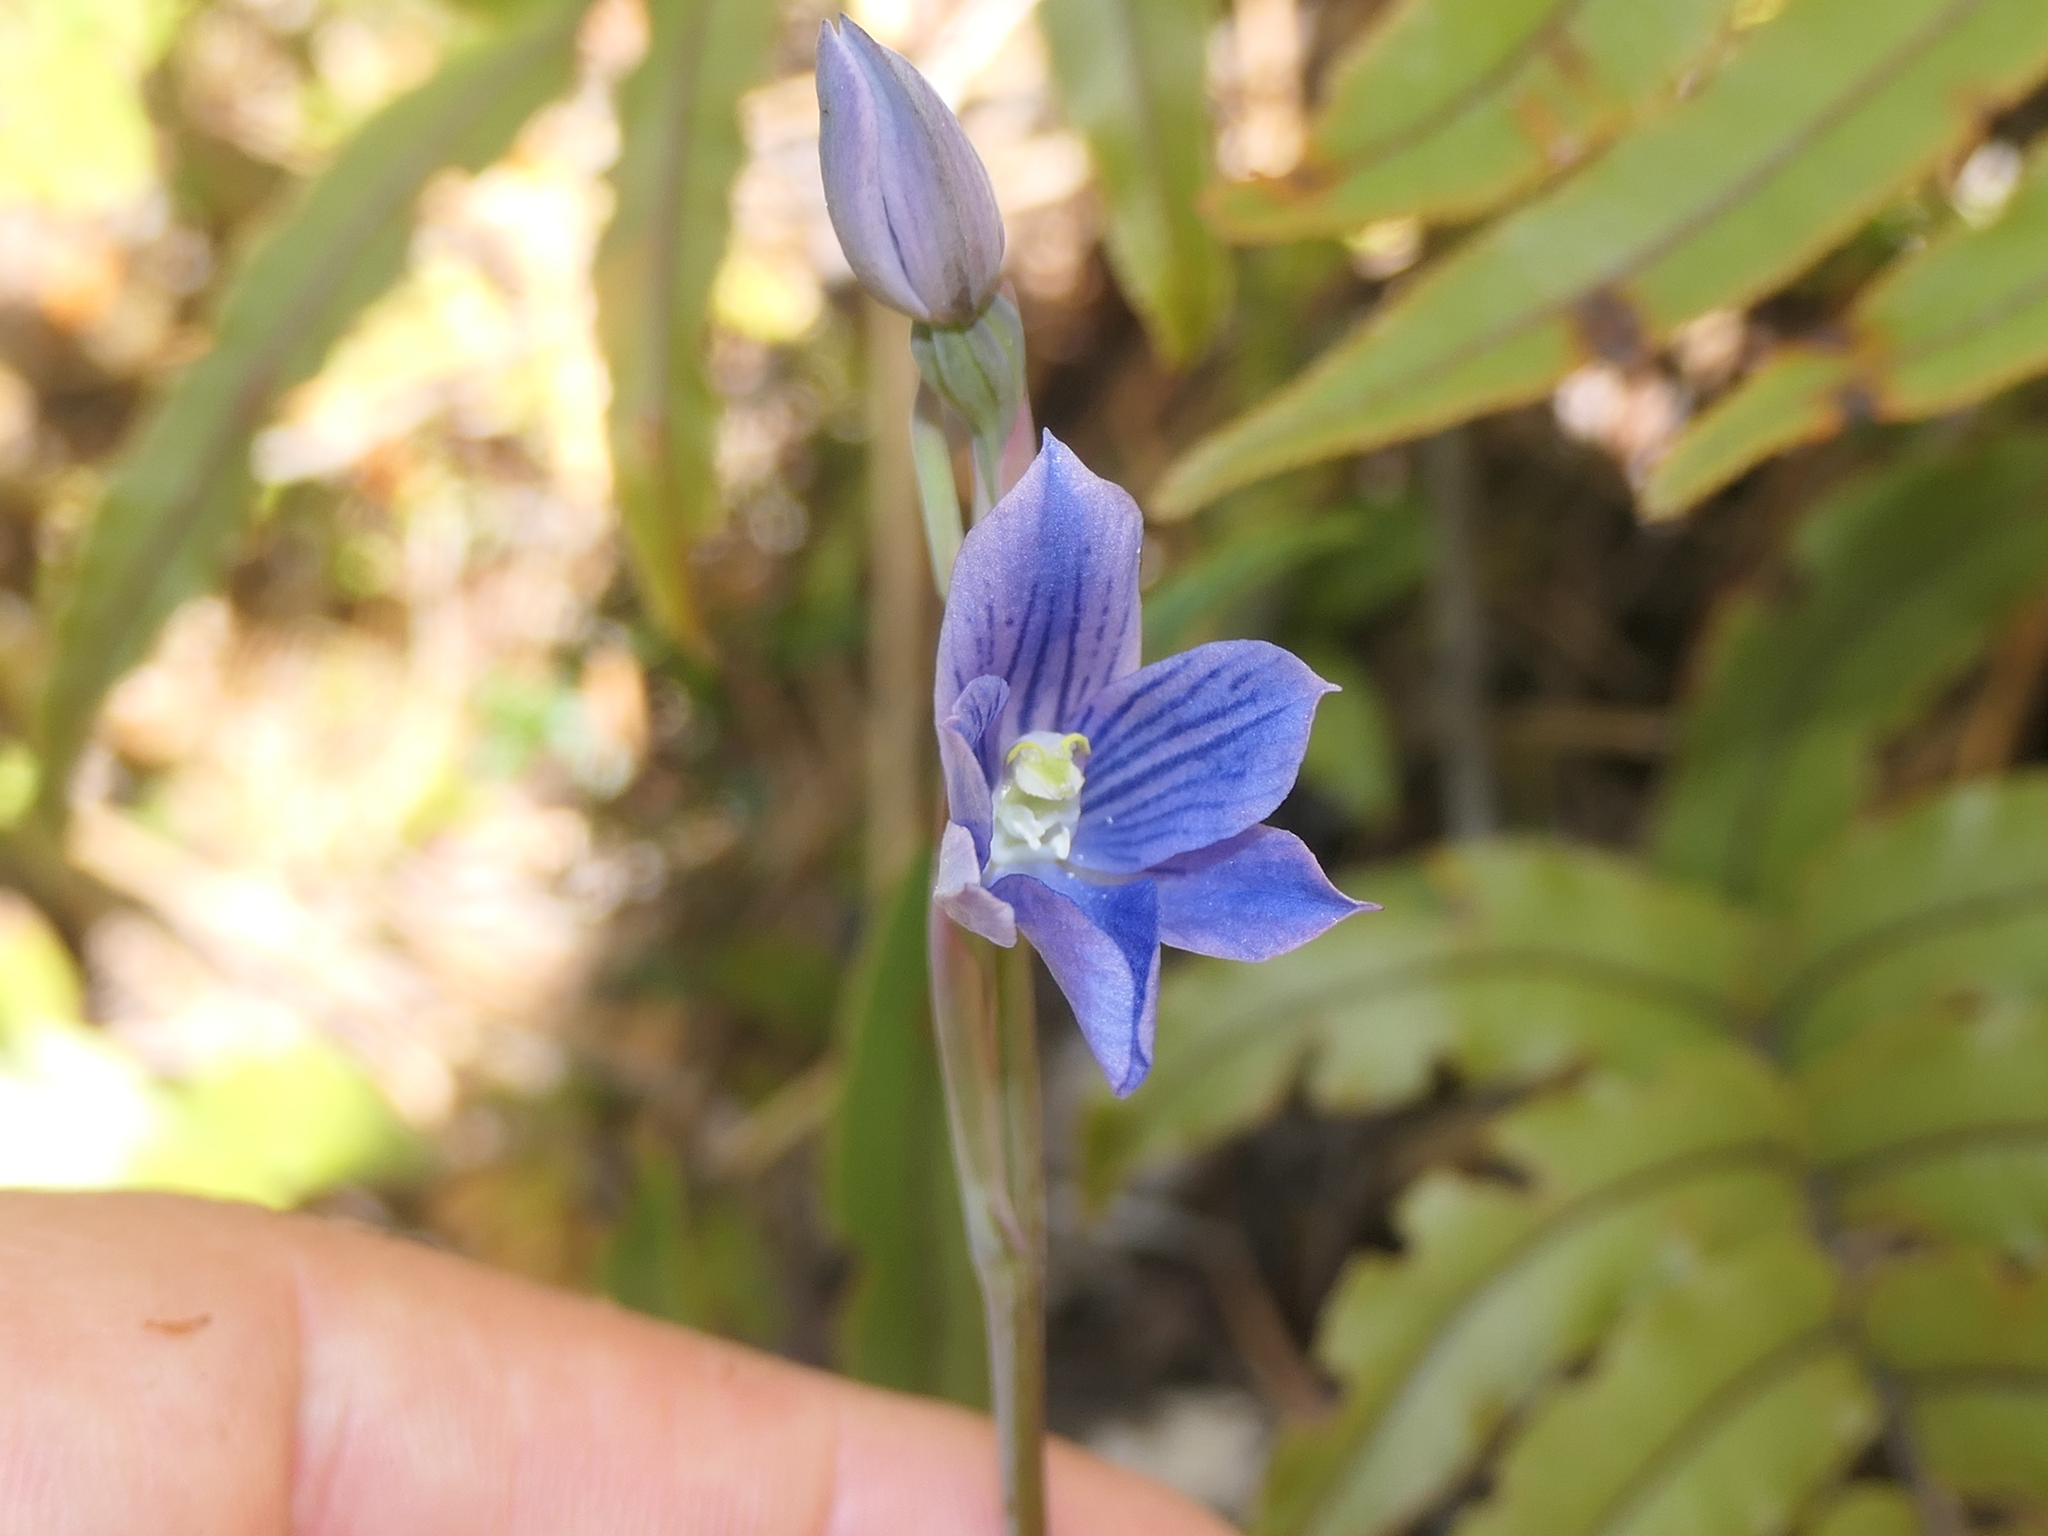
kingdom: Plantae
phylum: Tracheophyta
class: Liliopsida
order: Asparagales
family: Orchidaceae
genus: Thelymitra
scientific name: Thelymitra cyanea
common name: Blue sun-orchid
